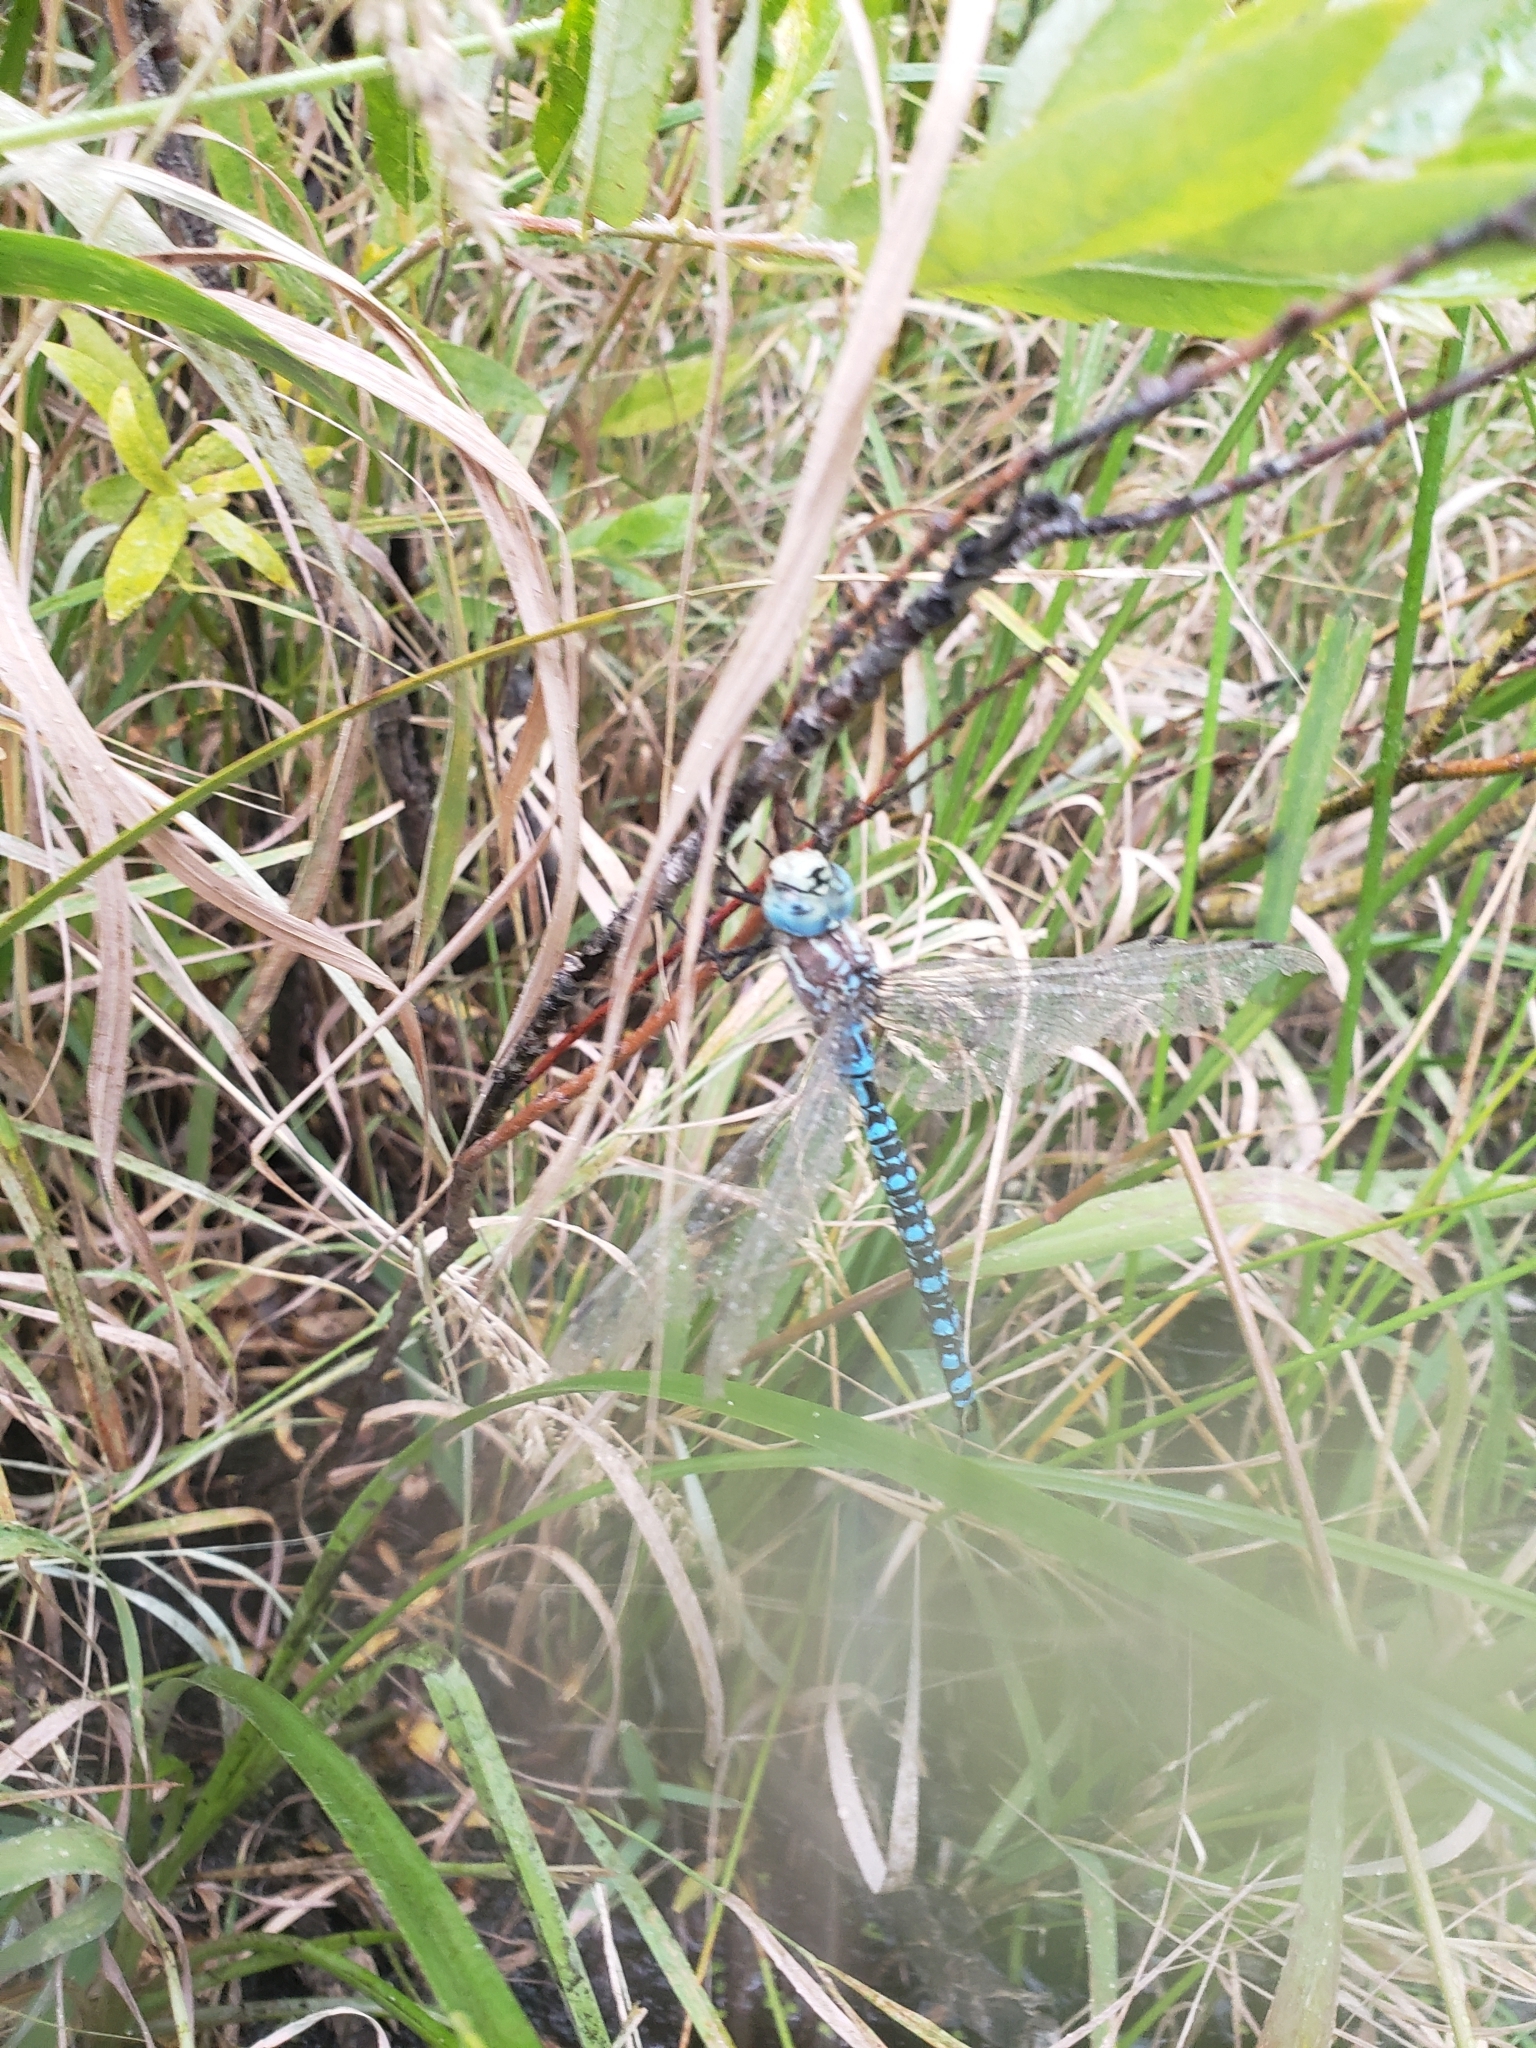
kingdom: Animalia
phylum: Arthropoda
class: Insecta
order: Odonata
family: Aeshnidae
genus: Aeshna
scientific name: Aeshna palmata
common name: Paddle-tailed darner
